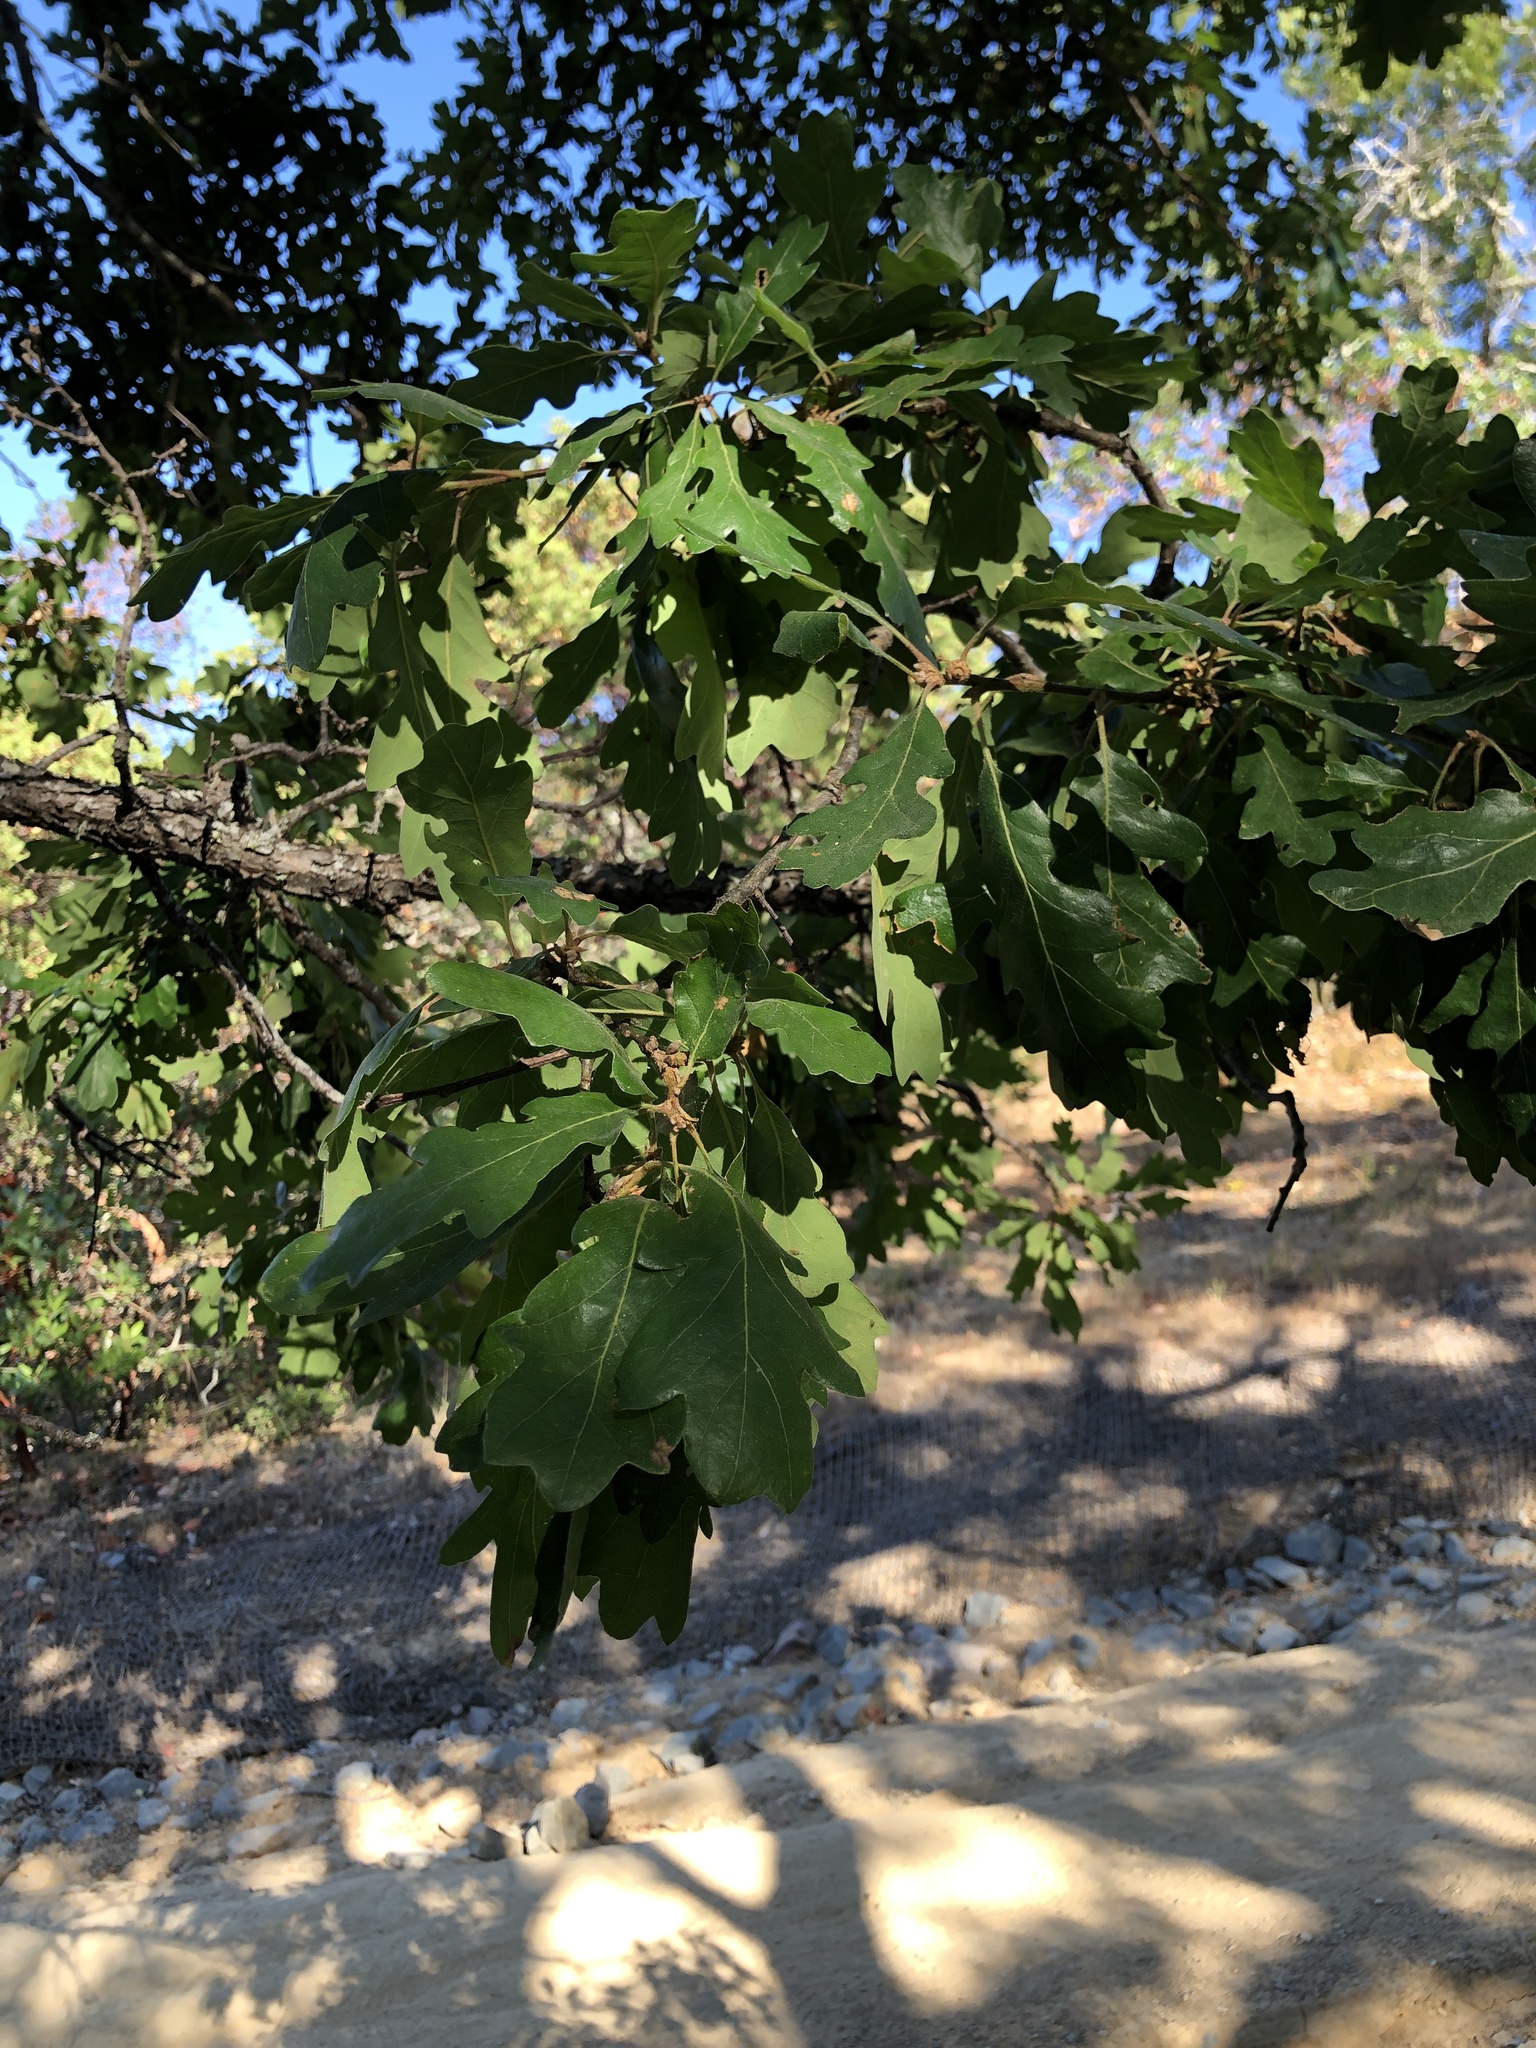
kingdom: Plantae
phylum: Tracheophyta
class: Magnoliopsida
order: Fagales
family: Fagaceae
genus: Quercus
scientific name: Quercus eplingii
